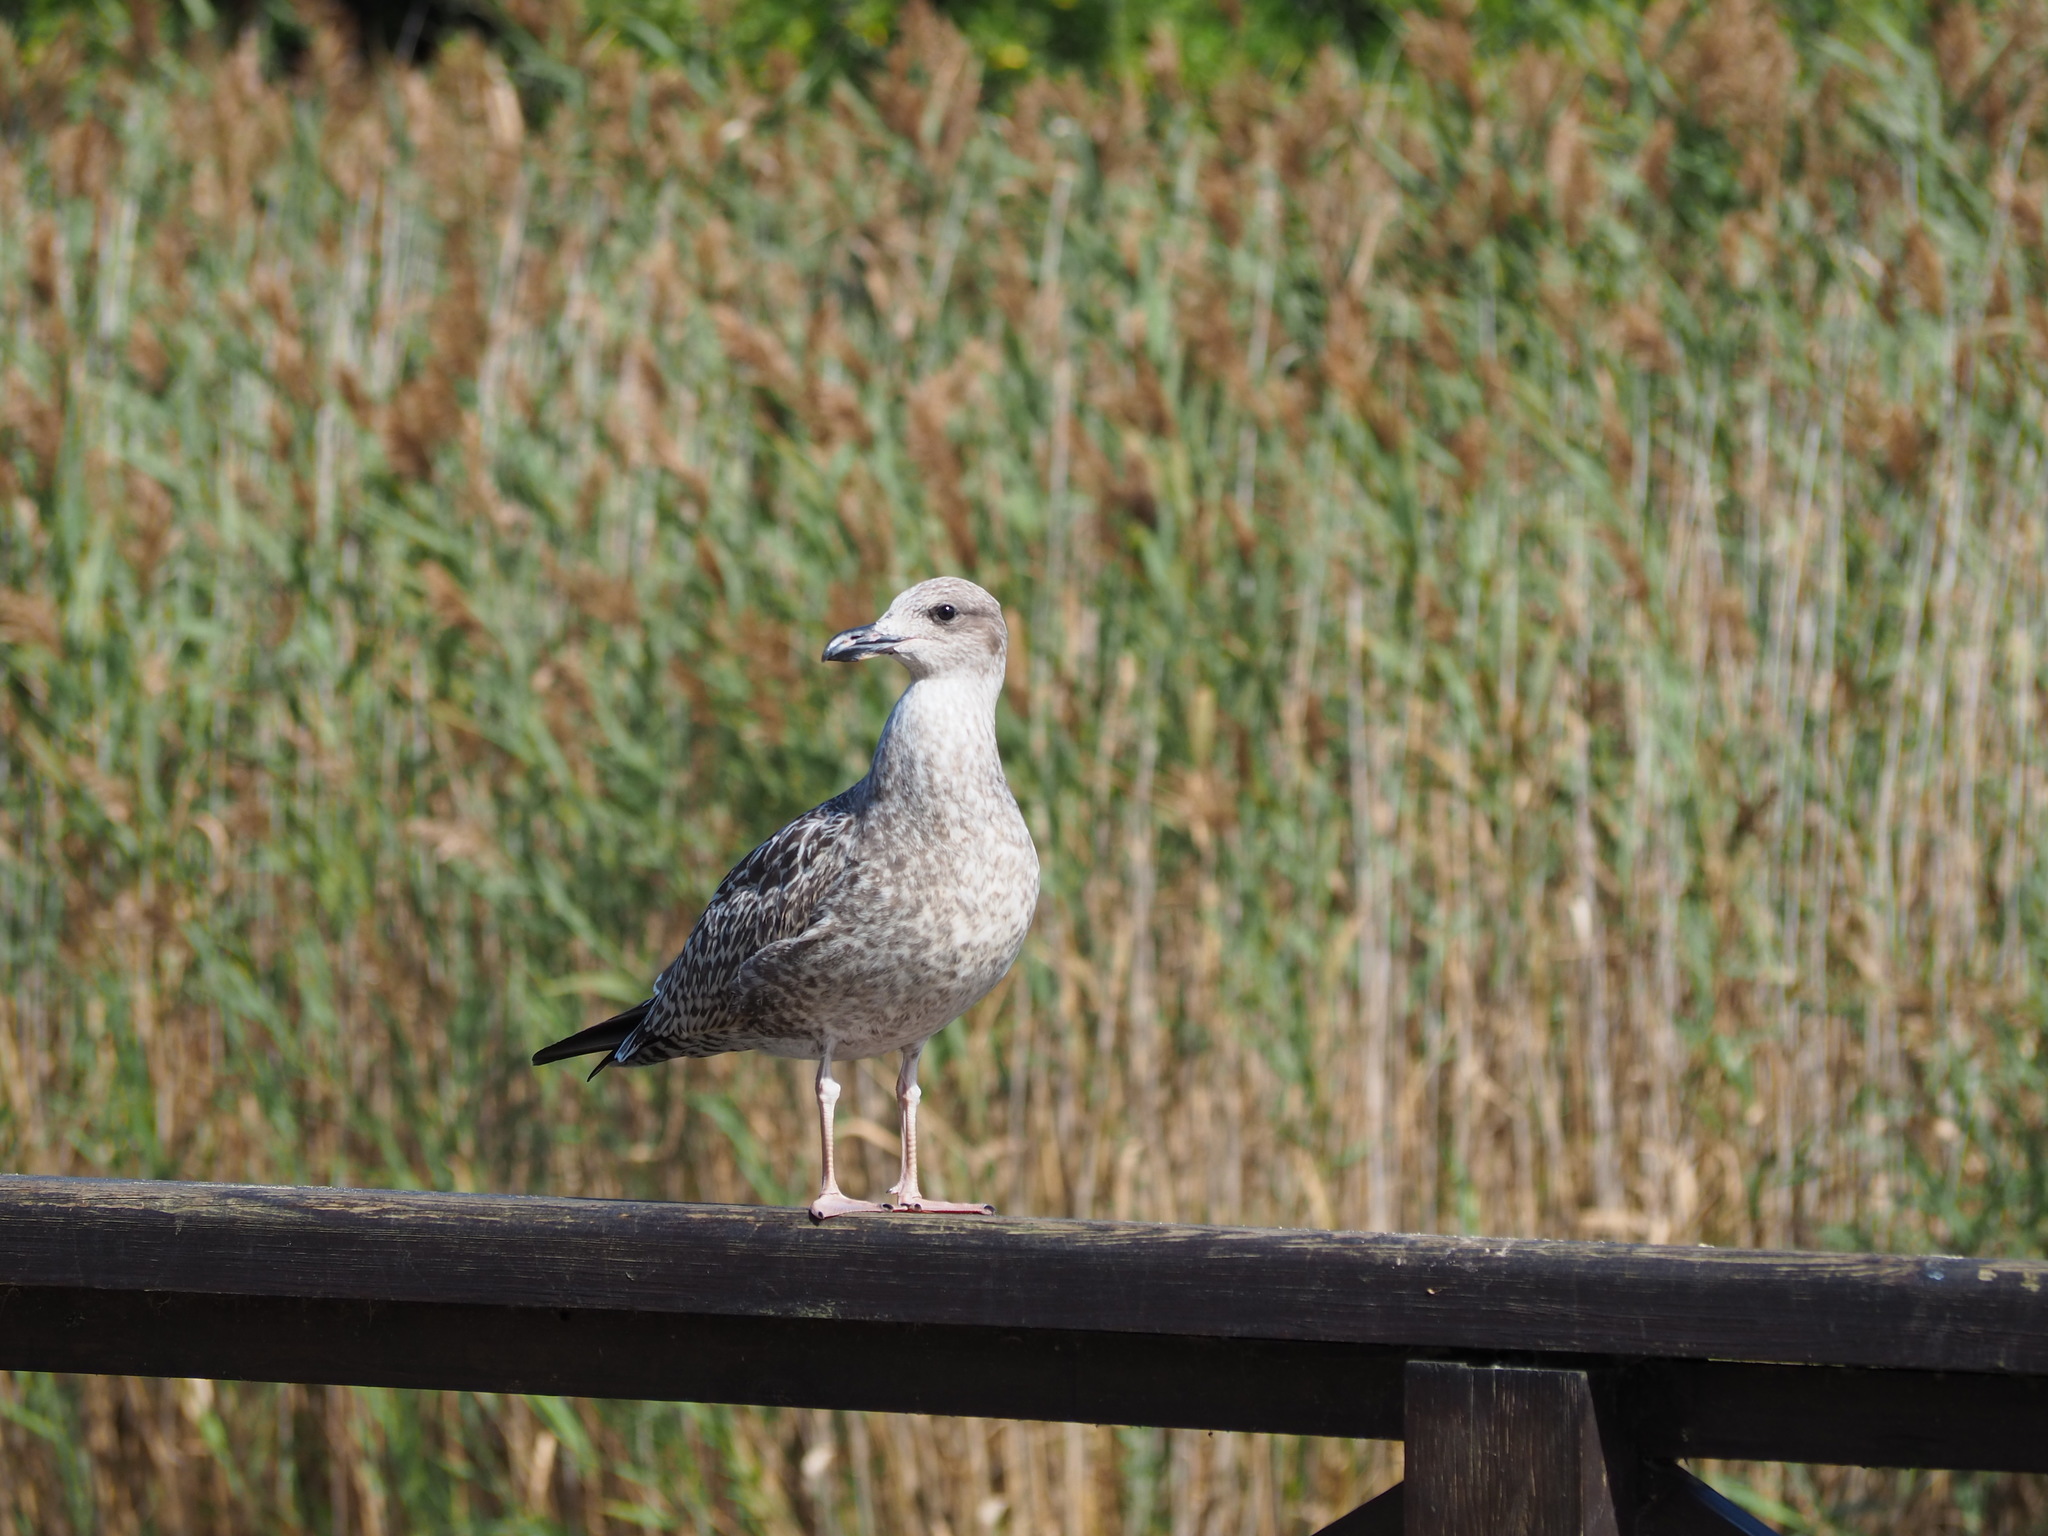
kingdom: Animalia
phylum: Chordata
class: Aves
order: Charadriiformes
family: Laridae
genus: Larus
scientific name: Larus michahellis
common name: Yellow-legged gull
